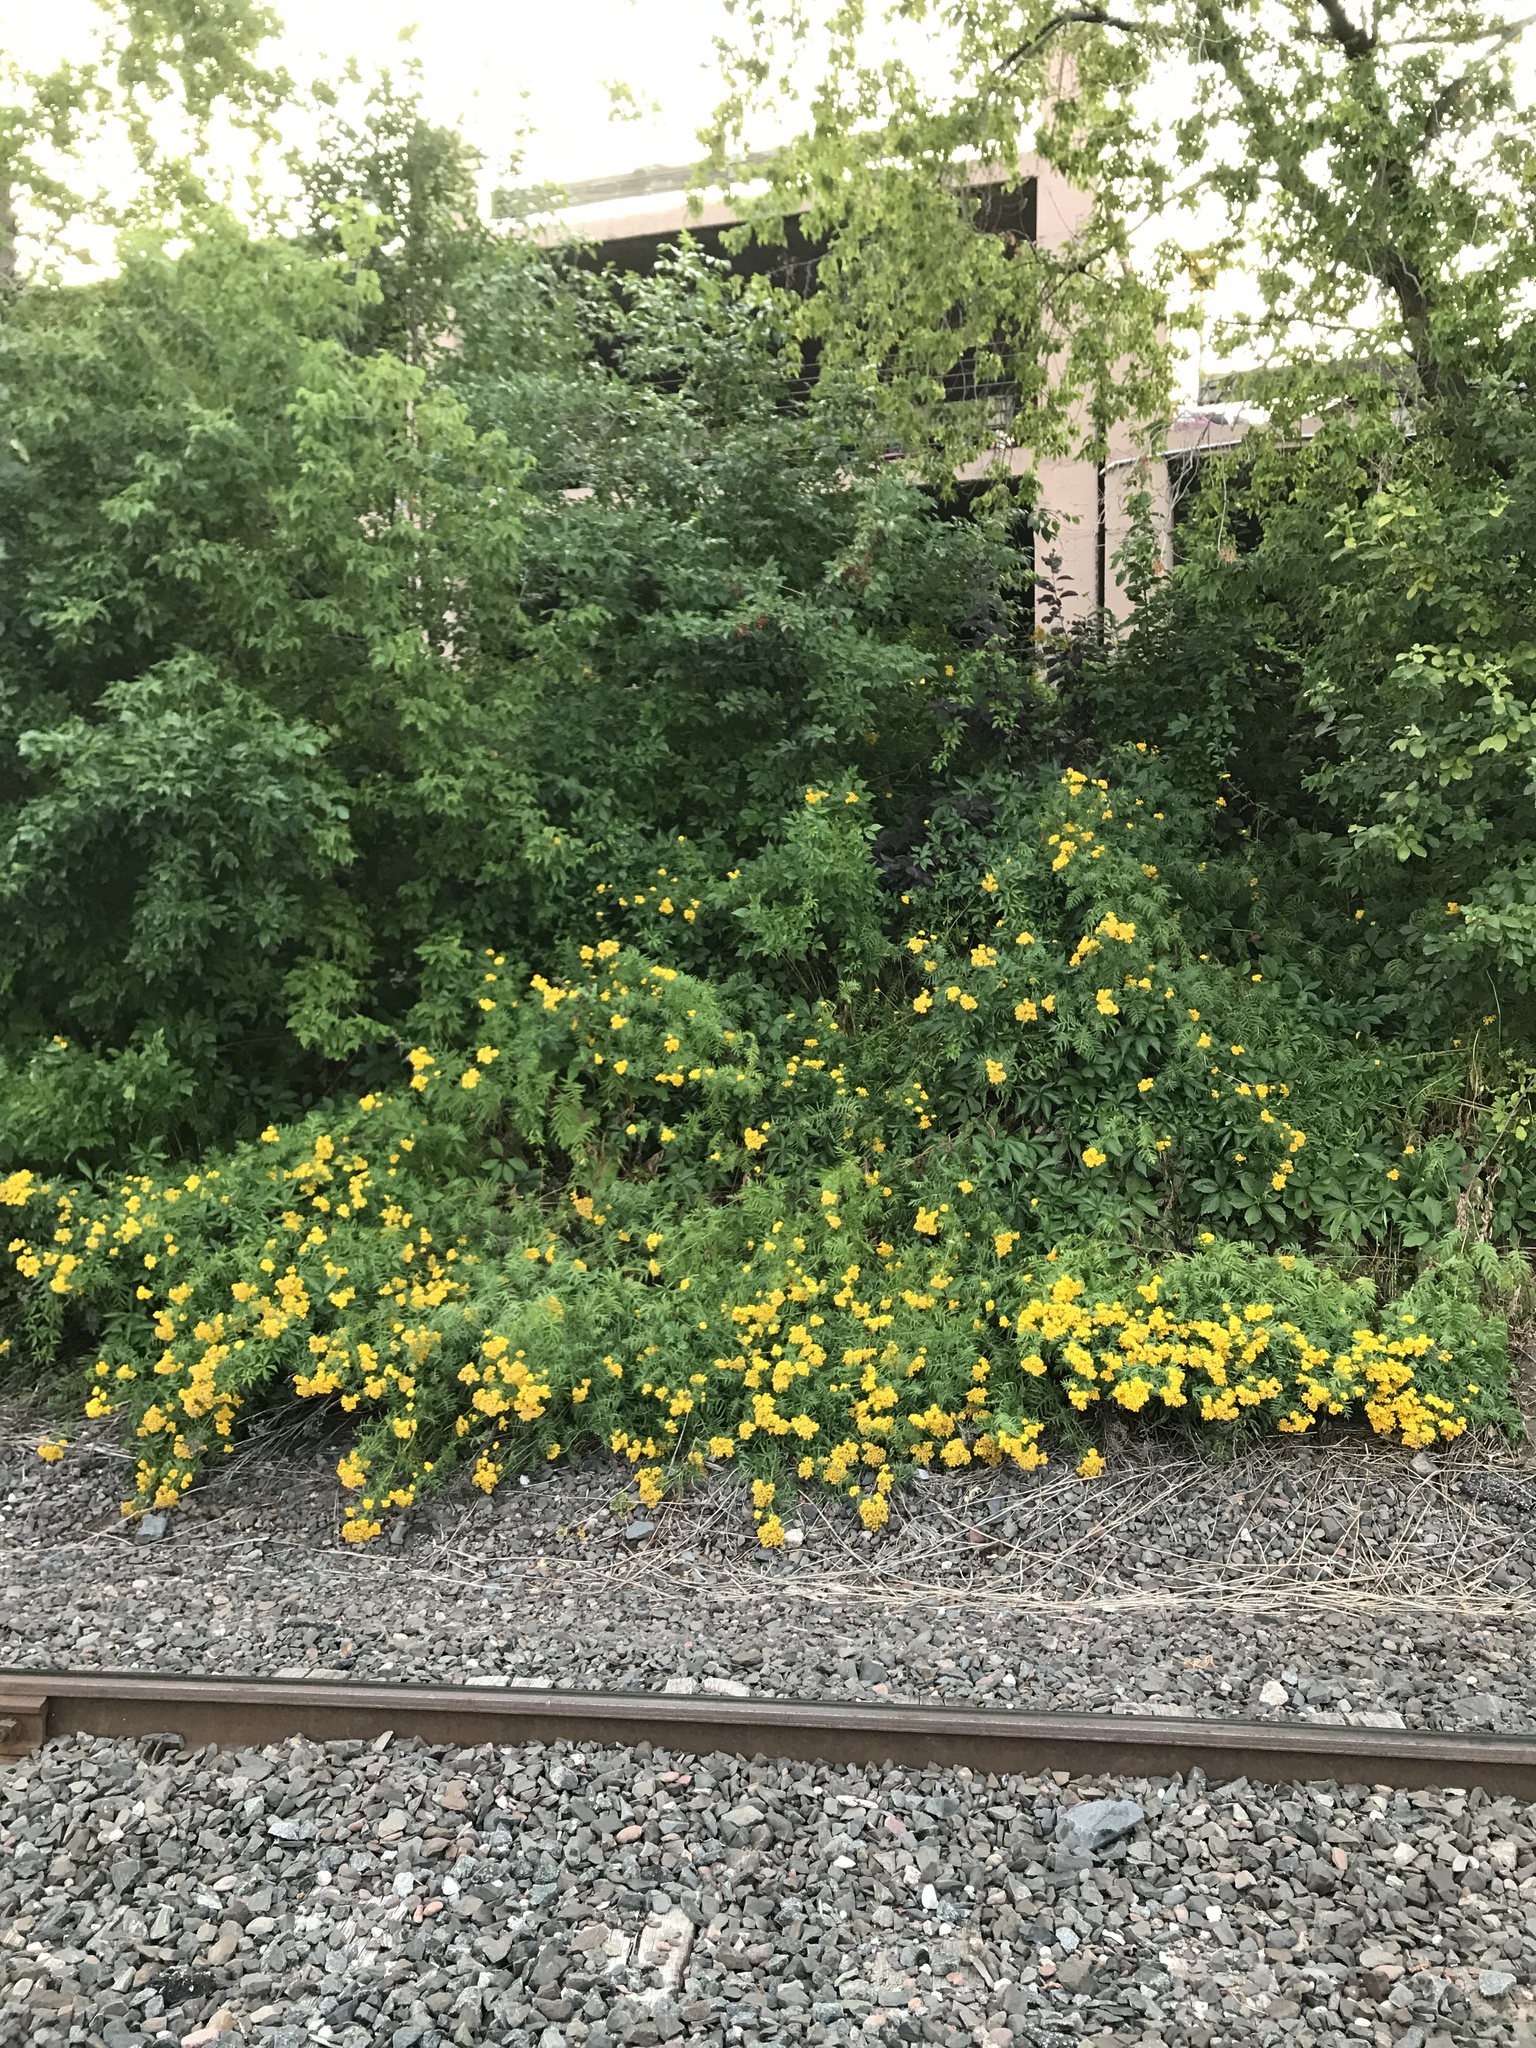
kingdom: Plantae
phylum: Tracheophyta
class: Magnoliopsida
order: Asterales
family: Asteraceae
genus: Tanacetum
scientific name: Tanacetum vulgare
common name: Common tansy
